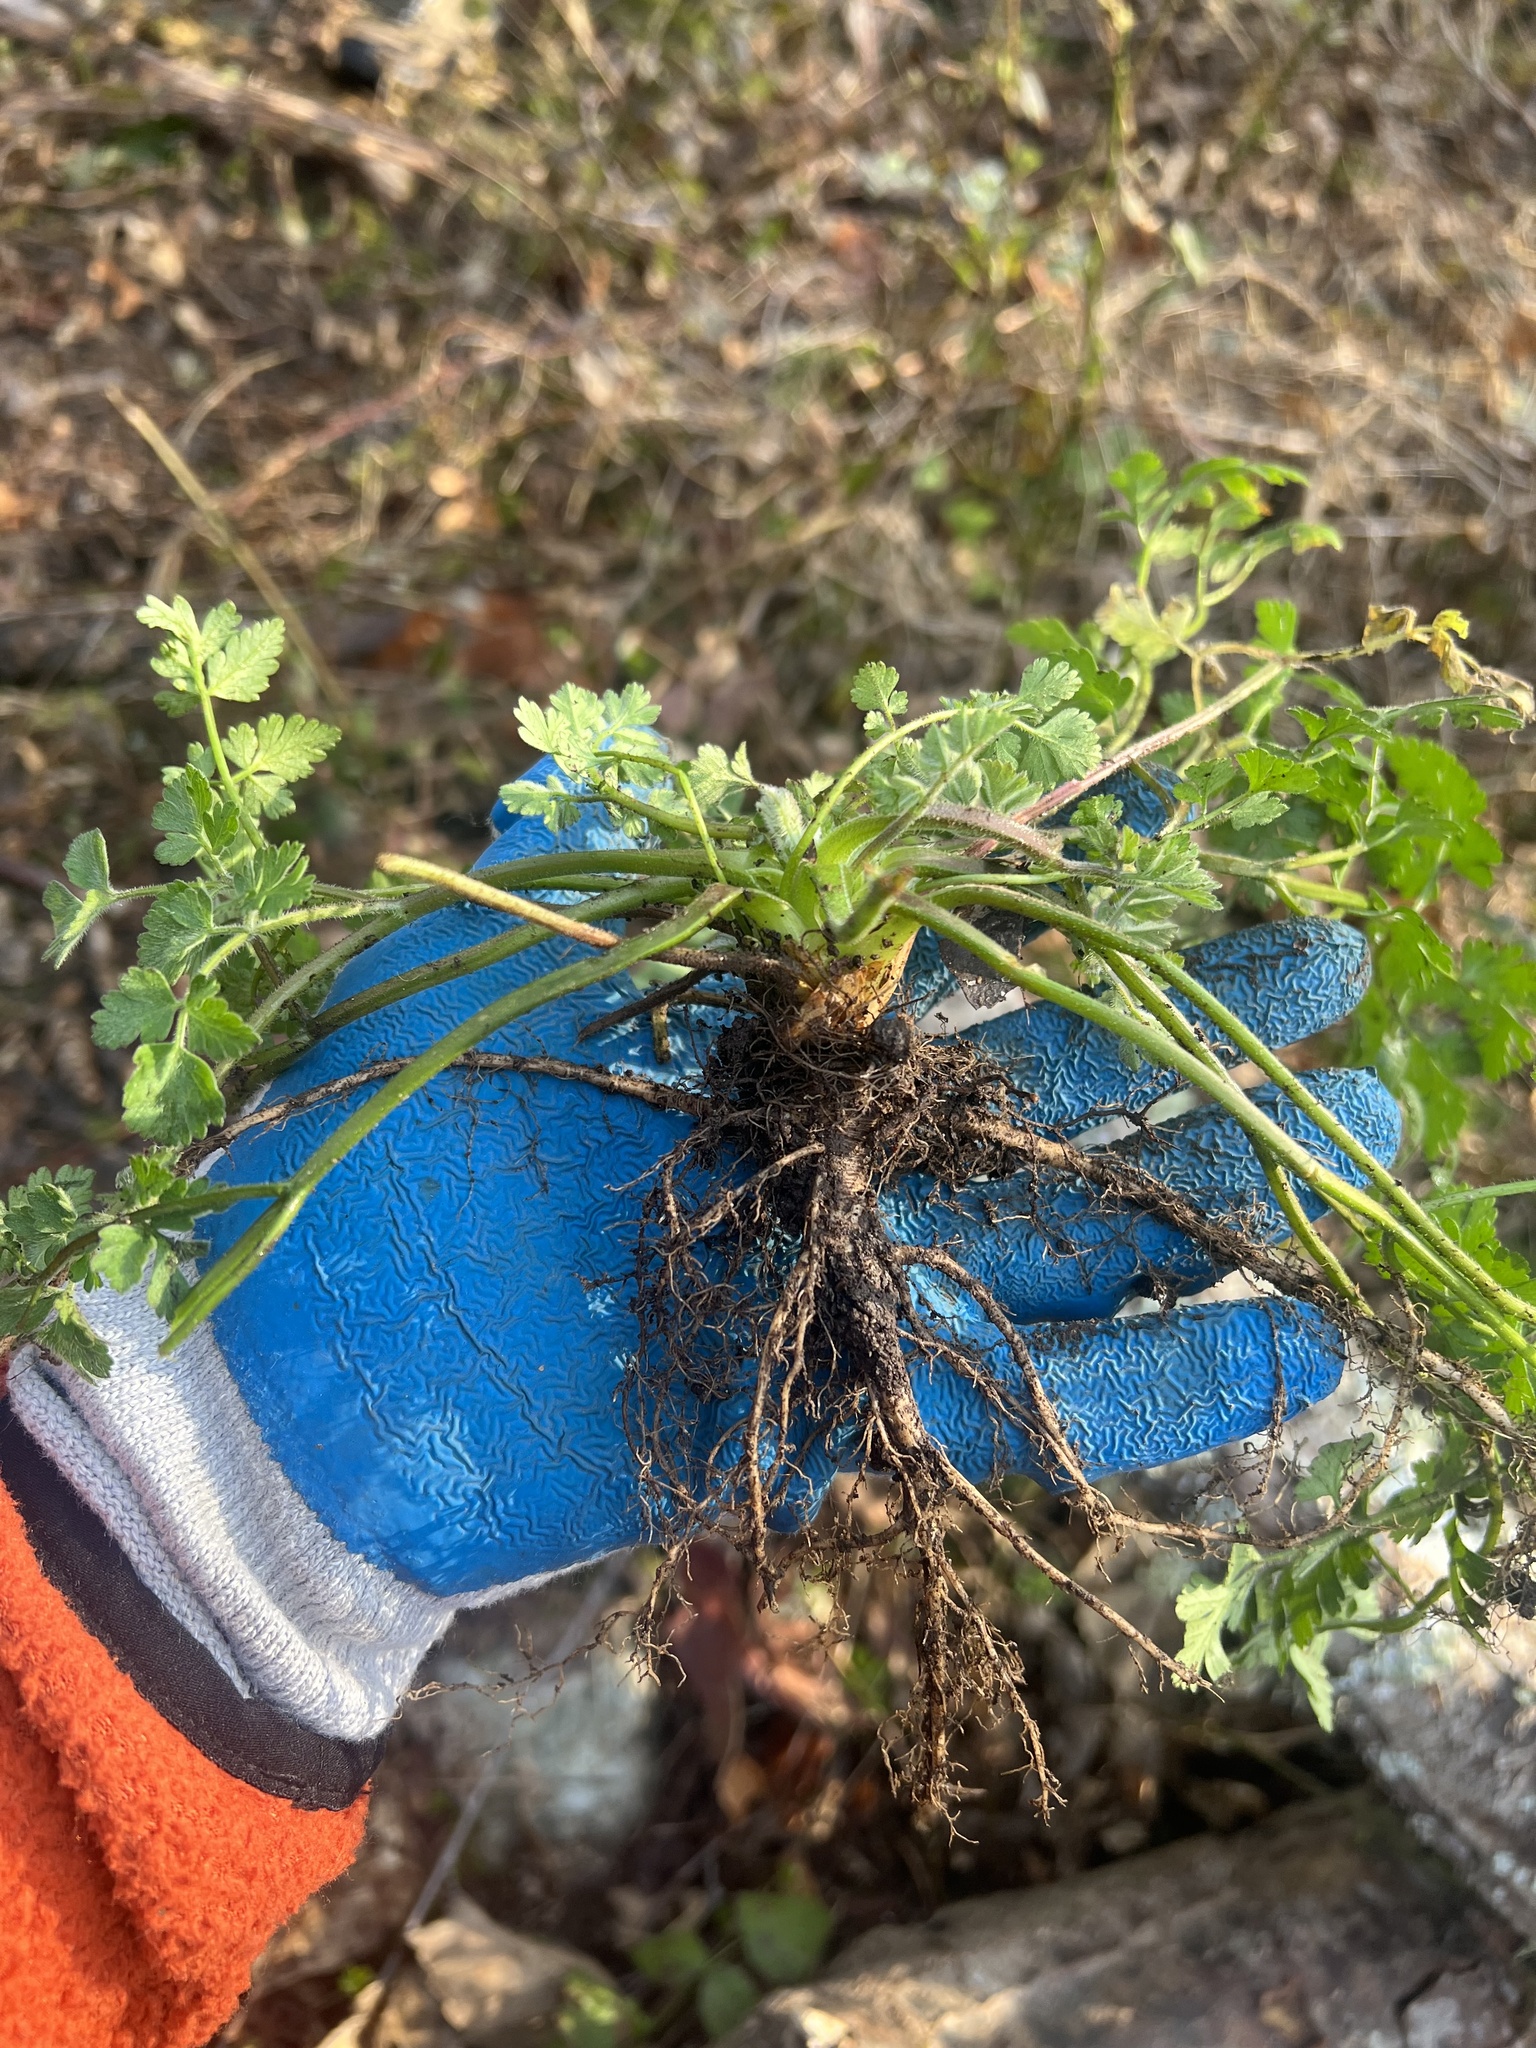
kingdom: Plantae
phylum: Tracheophyta
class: Magnoliopsida
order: Apiales
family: Apiaceae
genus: Chaerophyllum
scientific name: Chaerophyllum temulum
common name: Rough chervil
